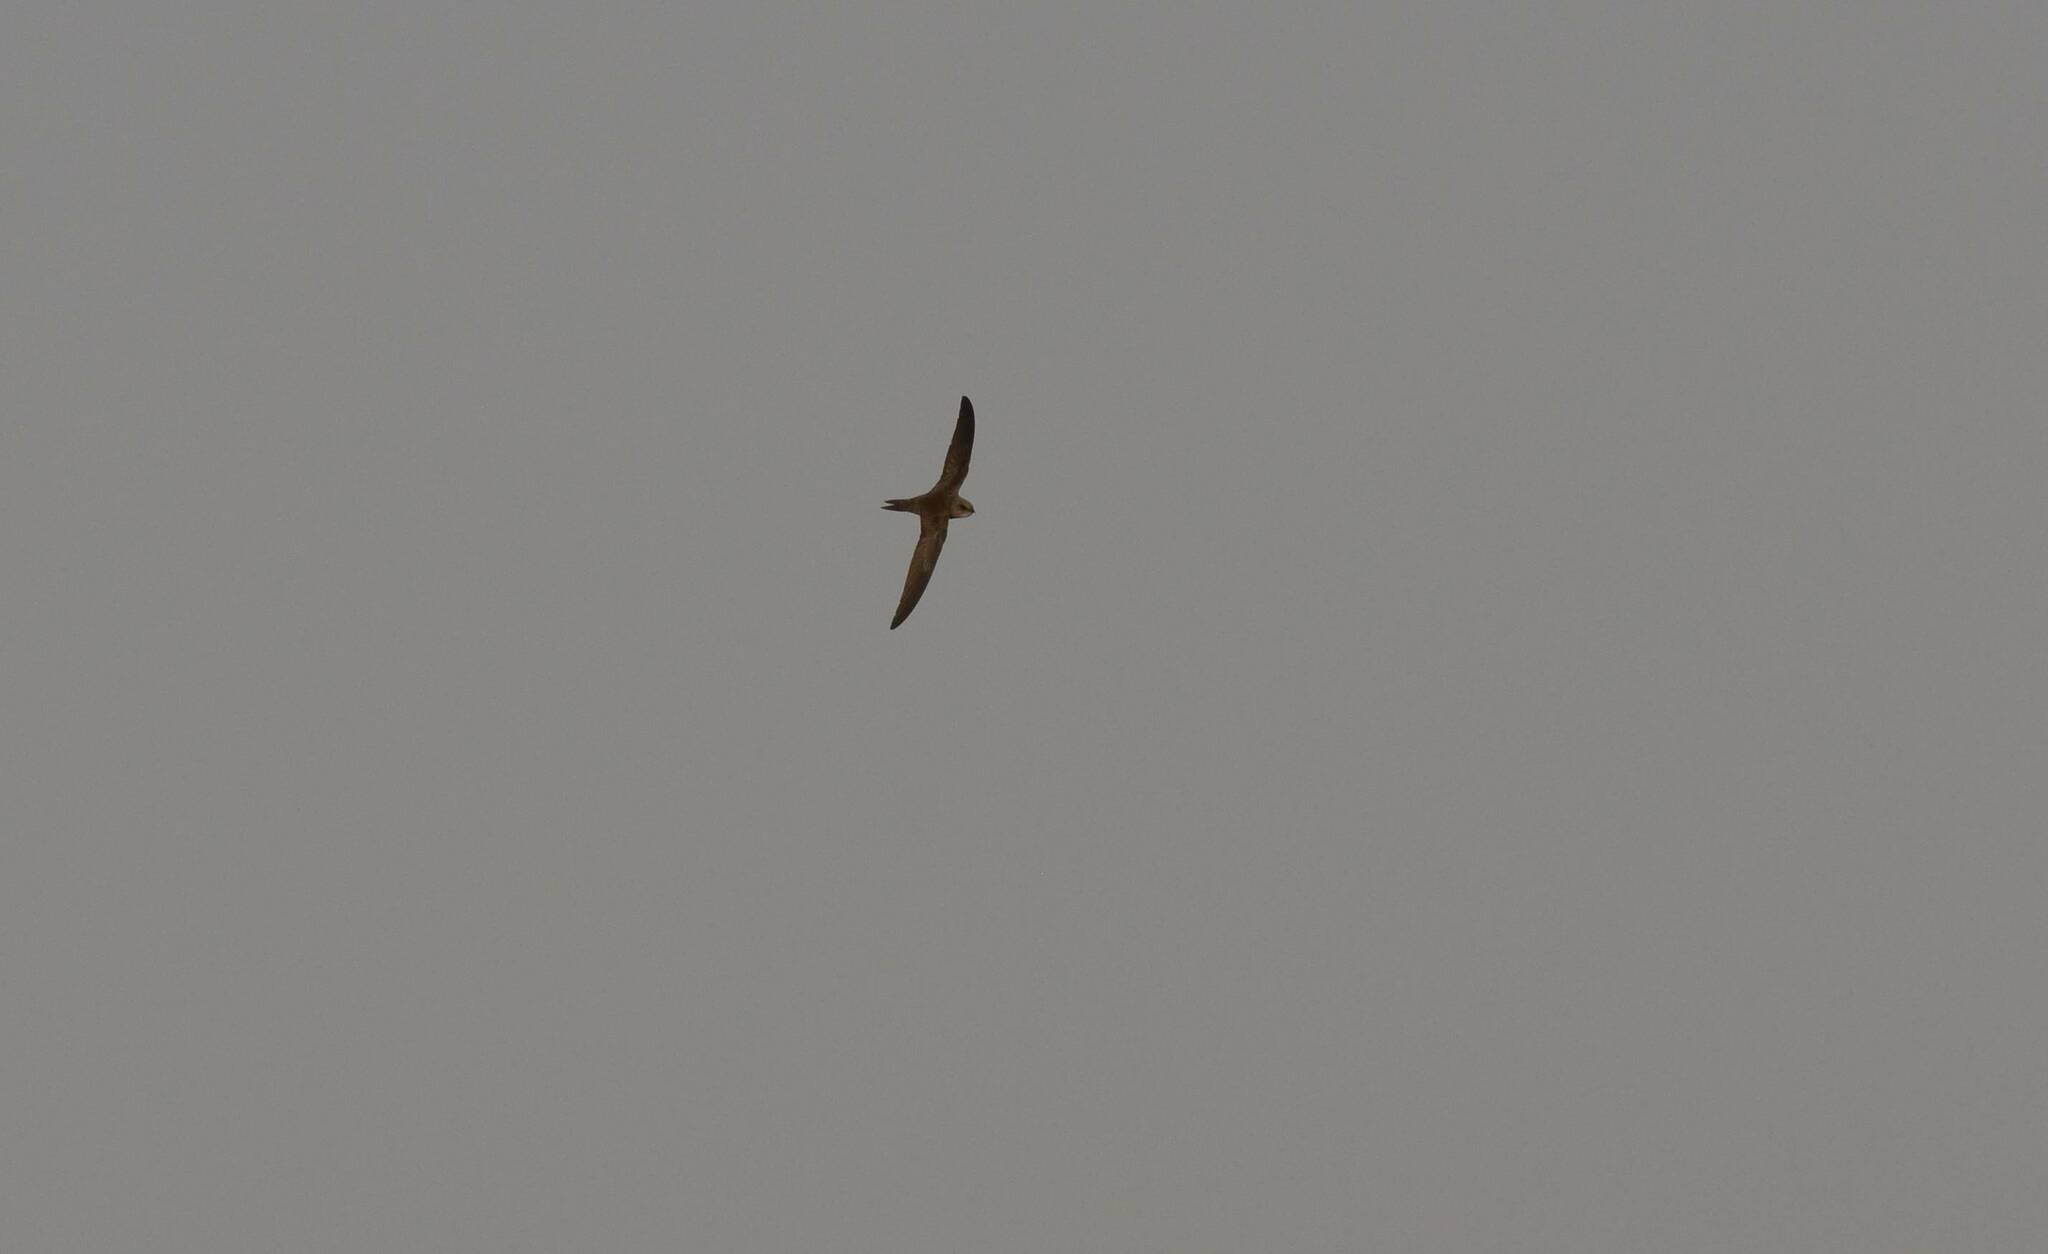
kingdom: Animalia
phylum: Chordata
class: Aves
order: Apodiformes
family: Apodidae
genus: Apus
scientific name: Apus pallidus
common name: Pallid swift
